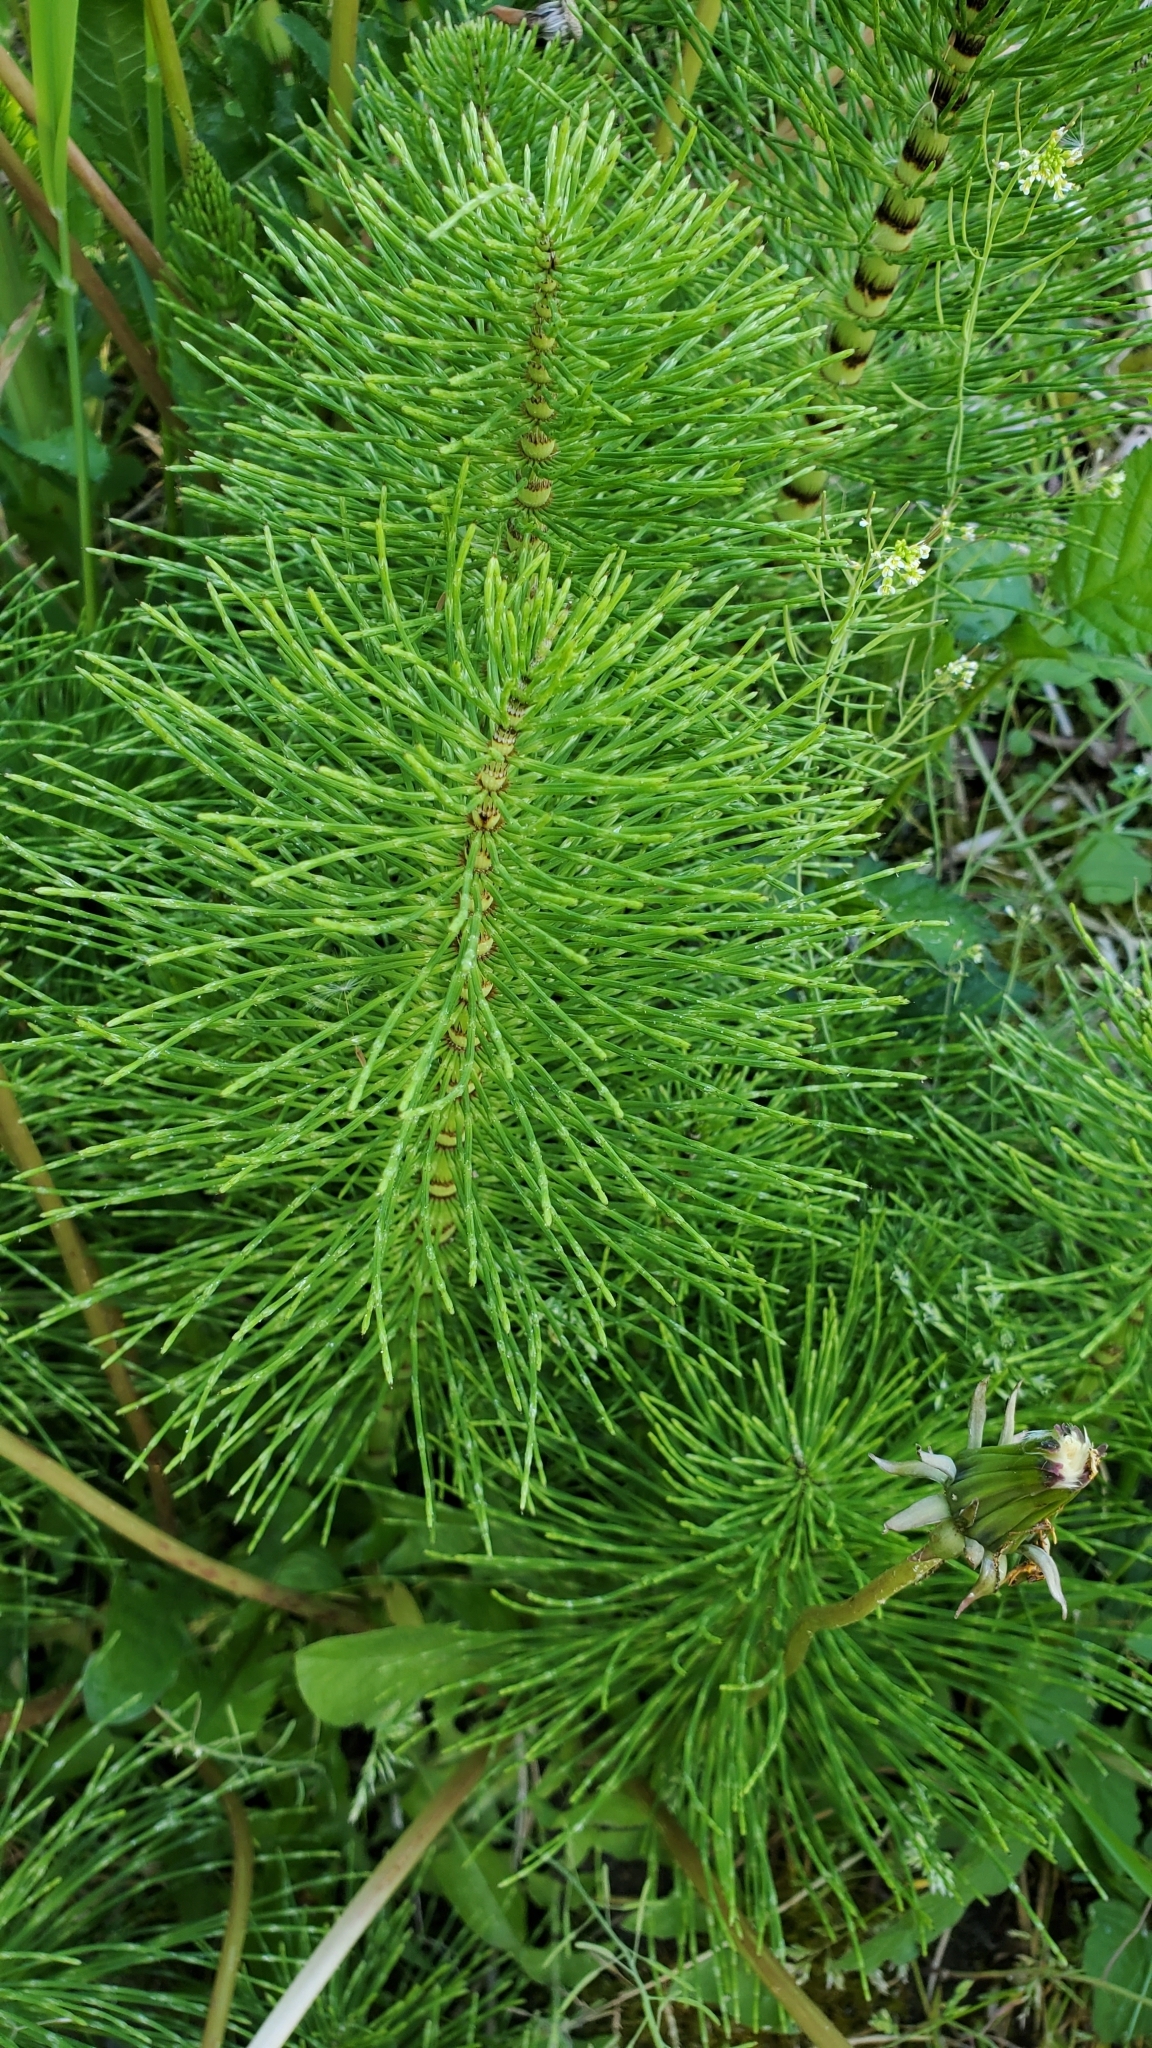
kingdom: Plantae
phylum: Tracheophyta
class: Polypodiopsida
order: Equisetales
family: Equisetaceae
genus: Equisetum
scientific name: Equisetum braunii
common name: Braun's horsetail
